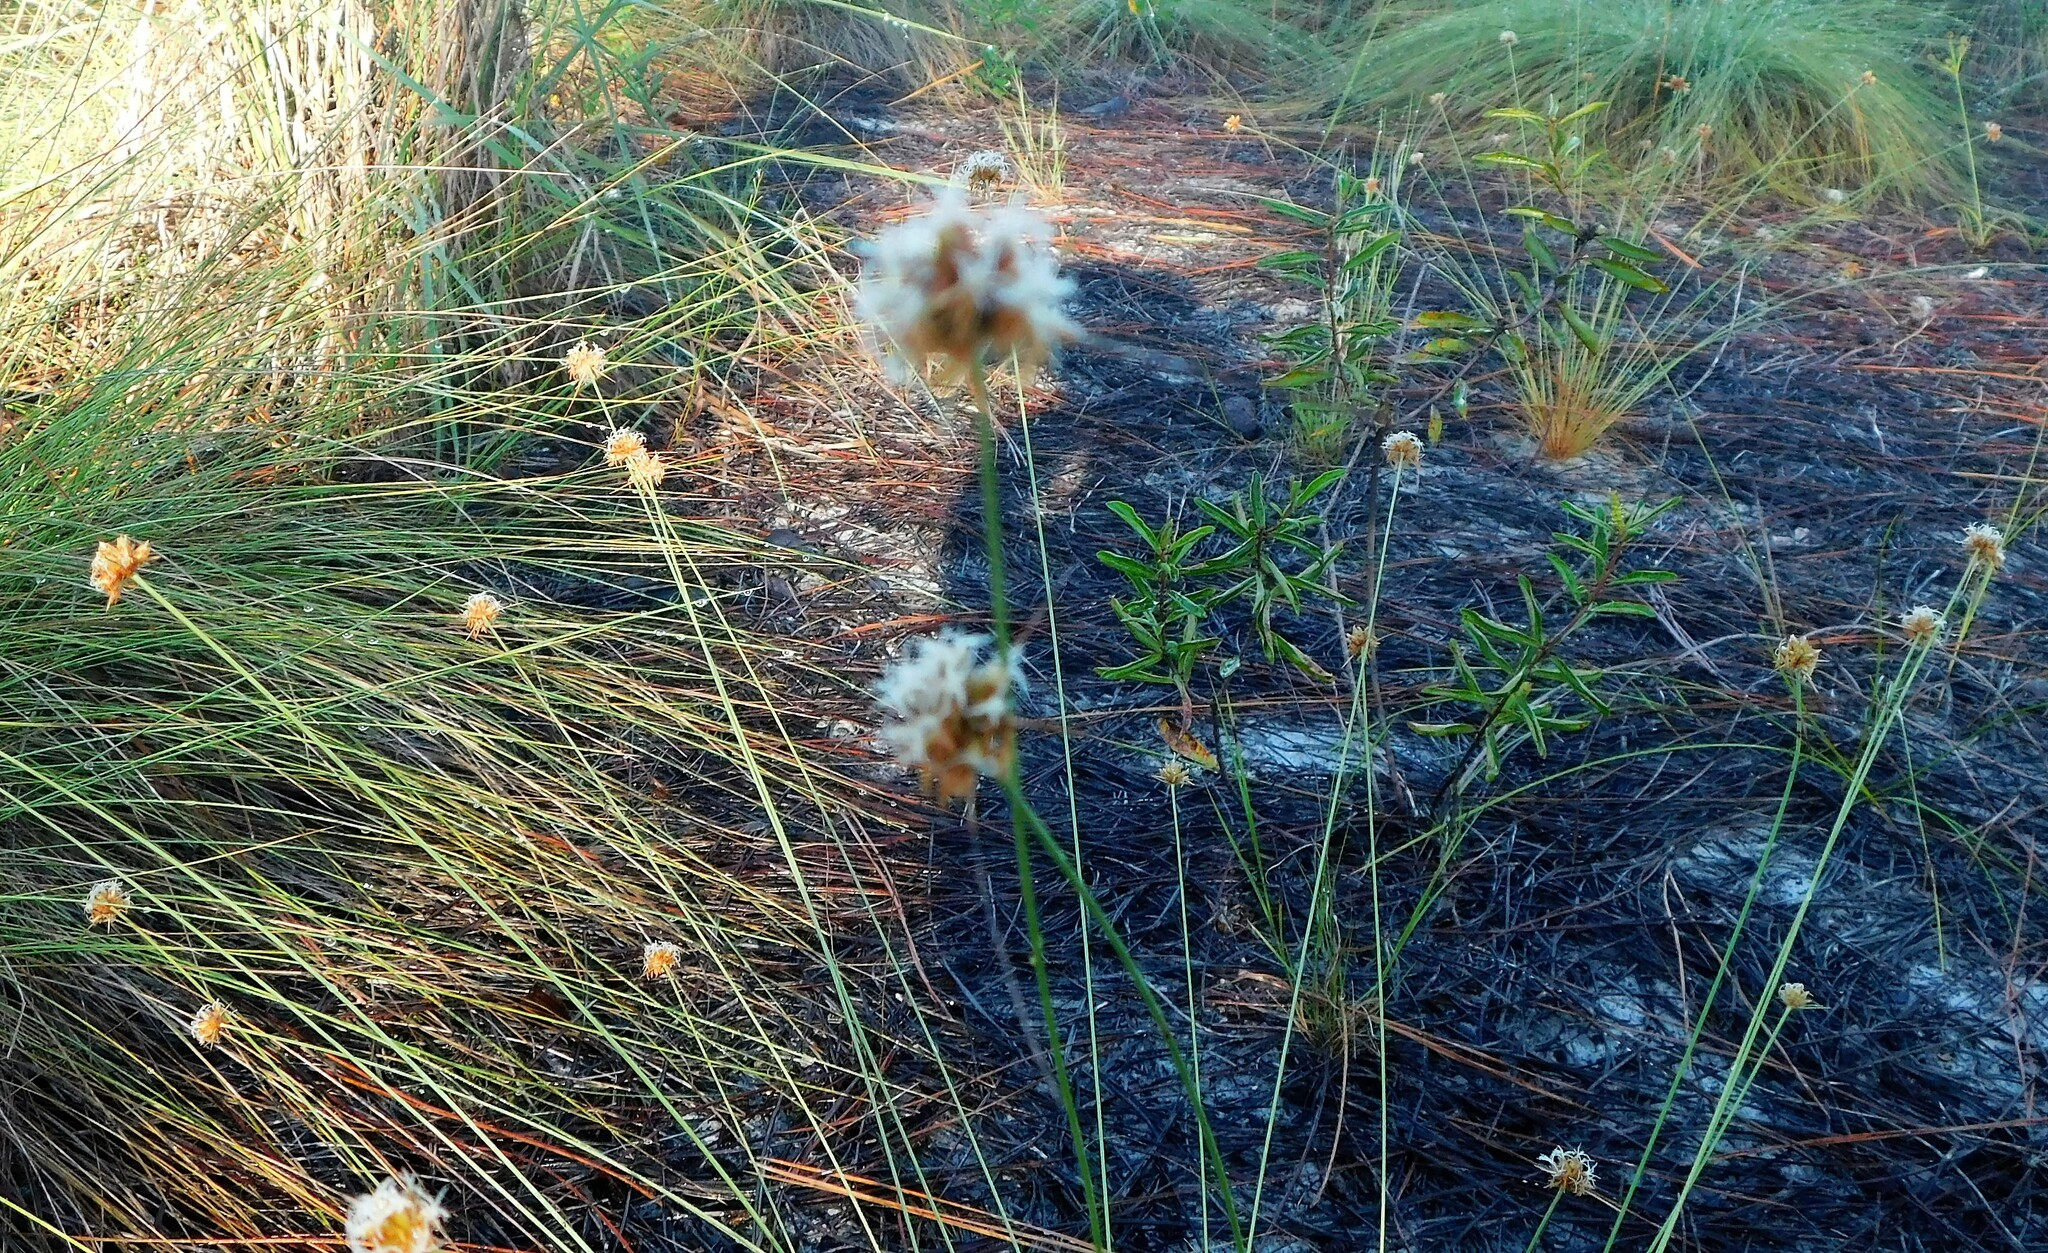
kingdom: Plantae
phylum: Tracheophyta
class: Liliopsida
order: Poales
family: Cyperaceae
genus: Bulbostylis
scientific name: Bulbostylis warei
